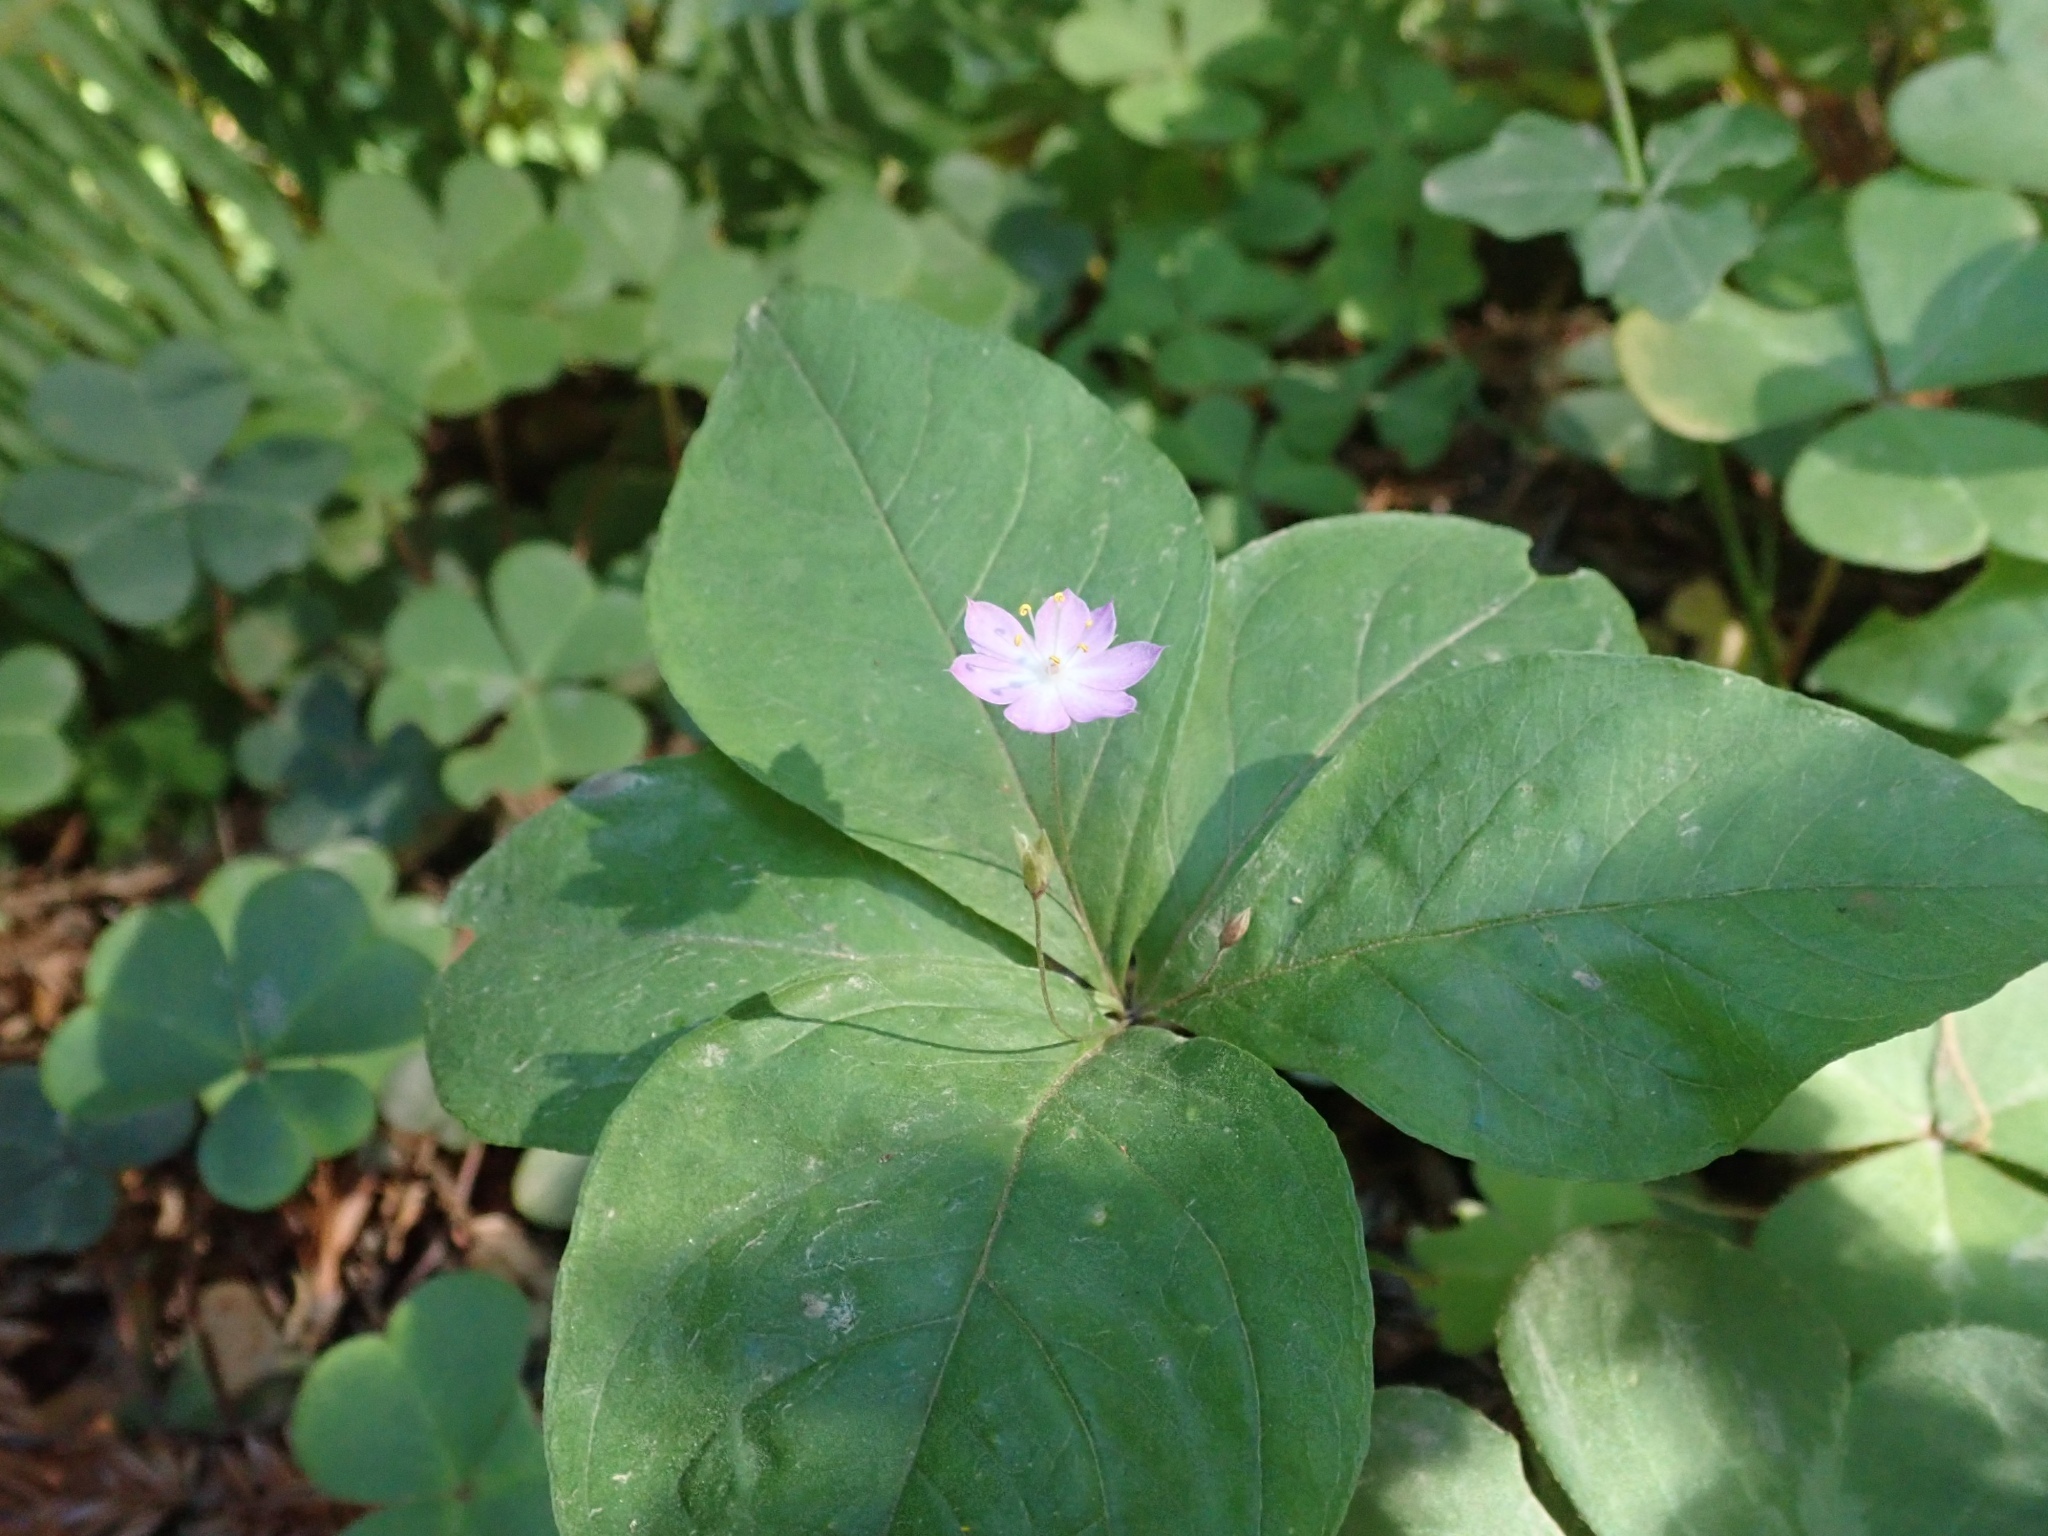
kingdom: Plantae
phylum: Tracheophyta
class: Magnoliopsida
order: Ericales
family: Primulaceae
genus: Lysimachia
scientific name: Lysimachia latifolia
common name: Pacific starflower
